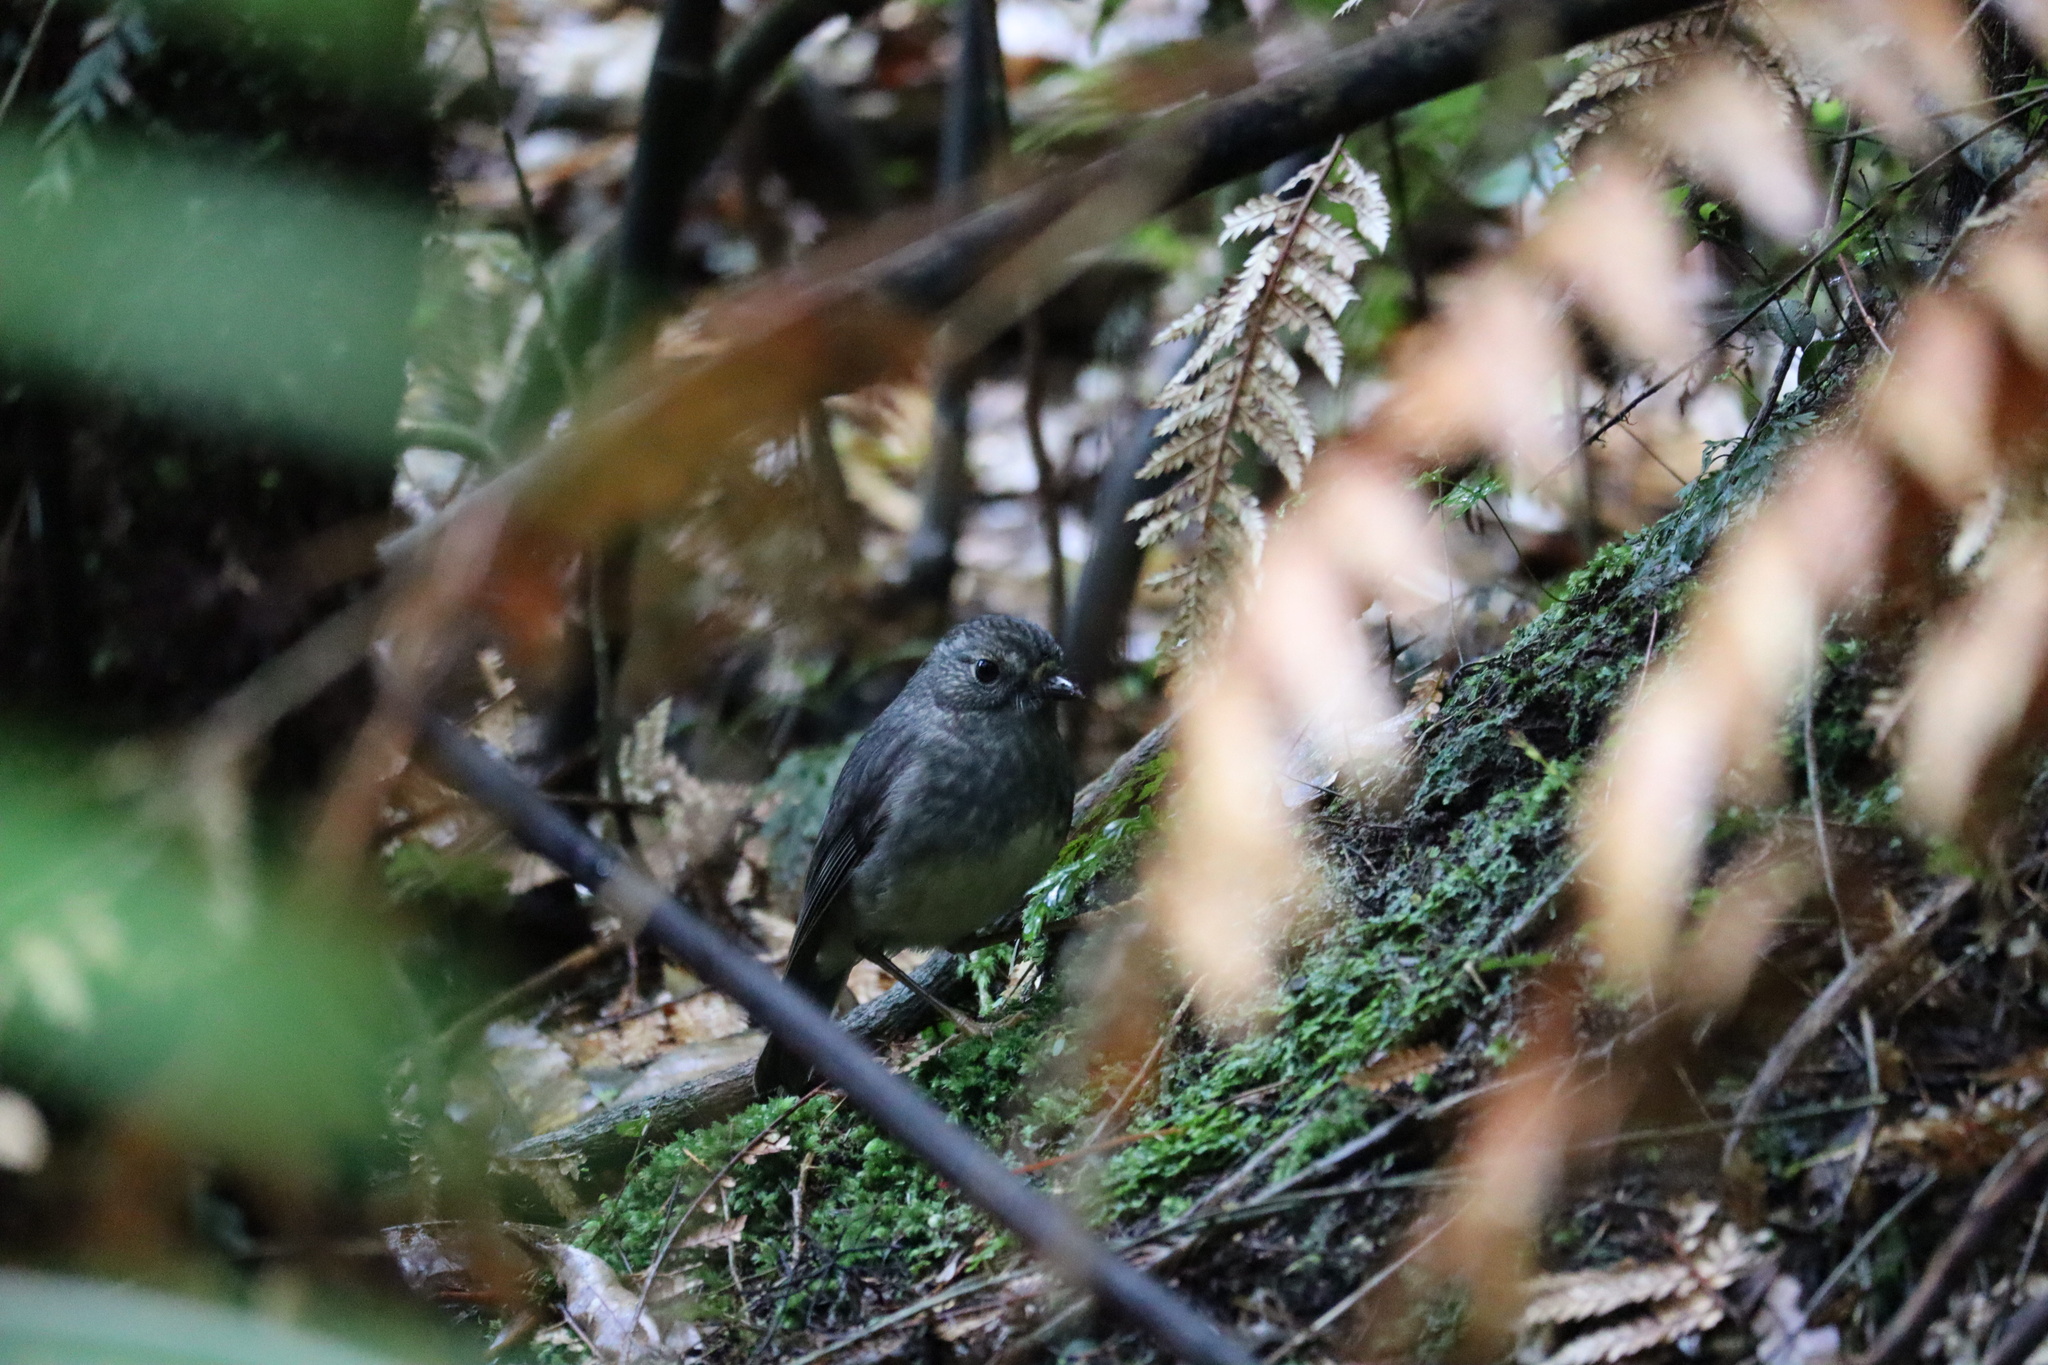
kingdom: Animalia
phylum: Chordata
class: Aves
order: Passeriformes
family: Petroicidae
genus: Petroica
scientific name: Petroica australis
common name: New zealand robin
